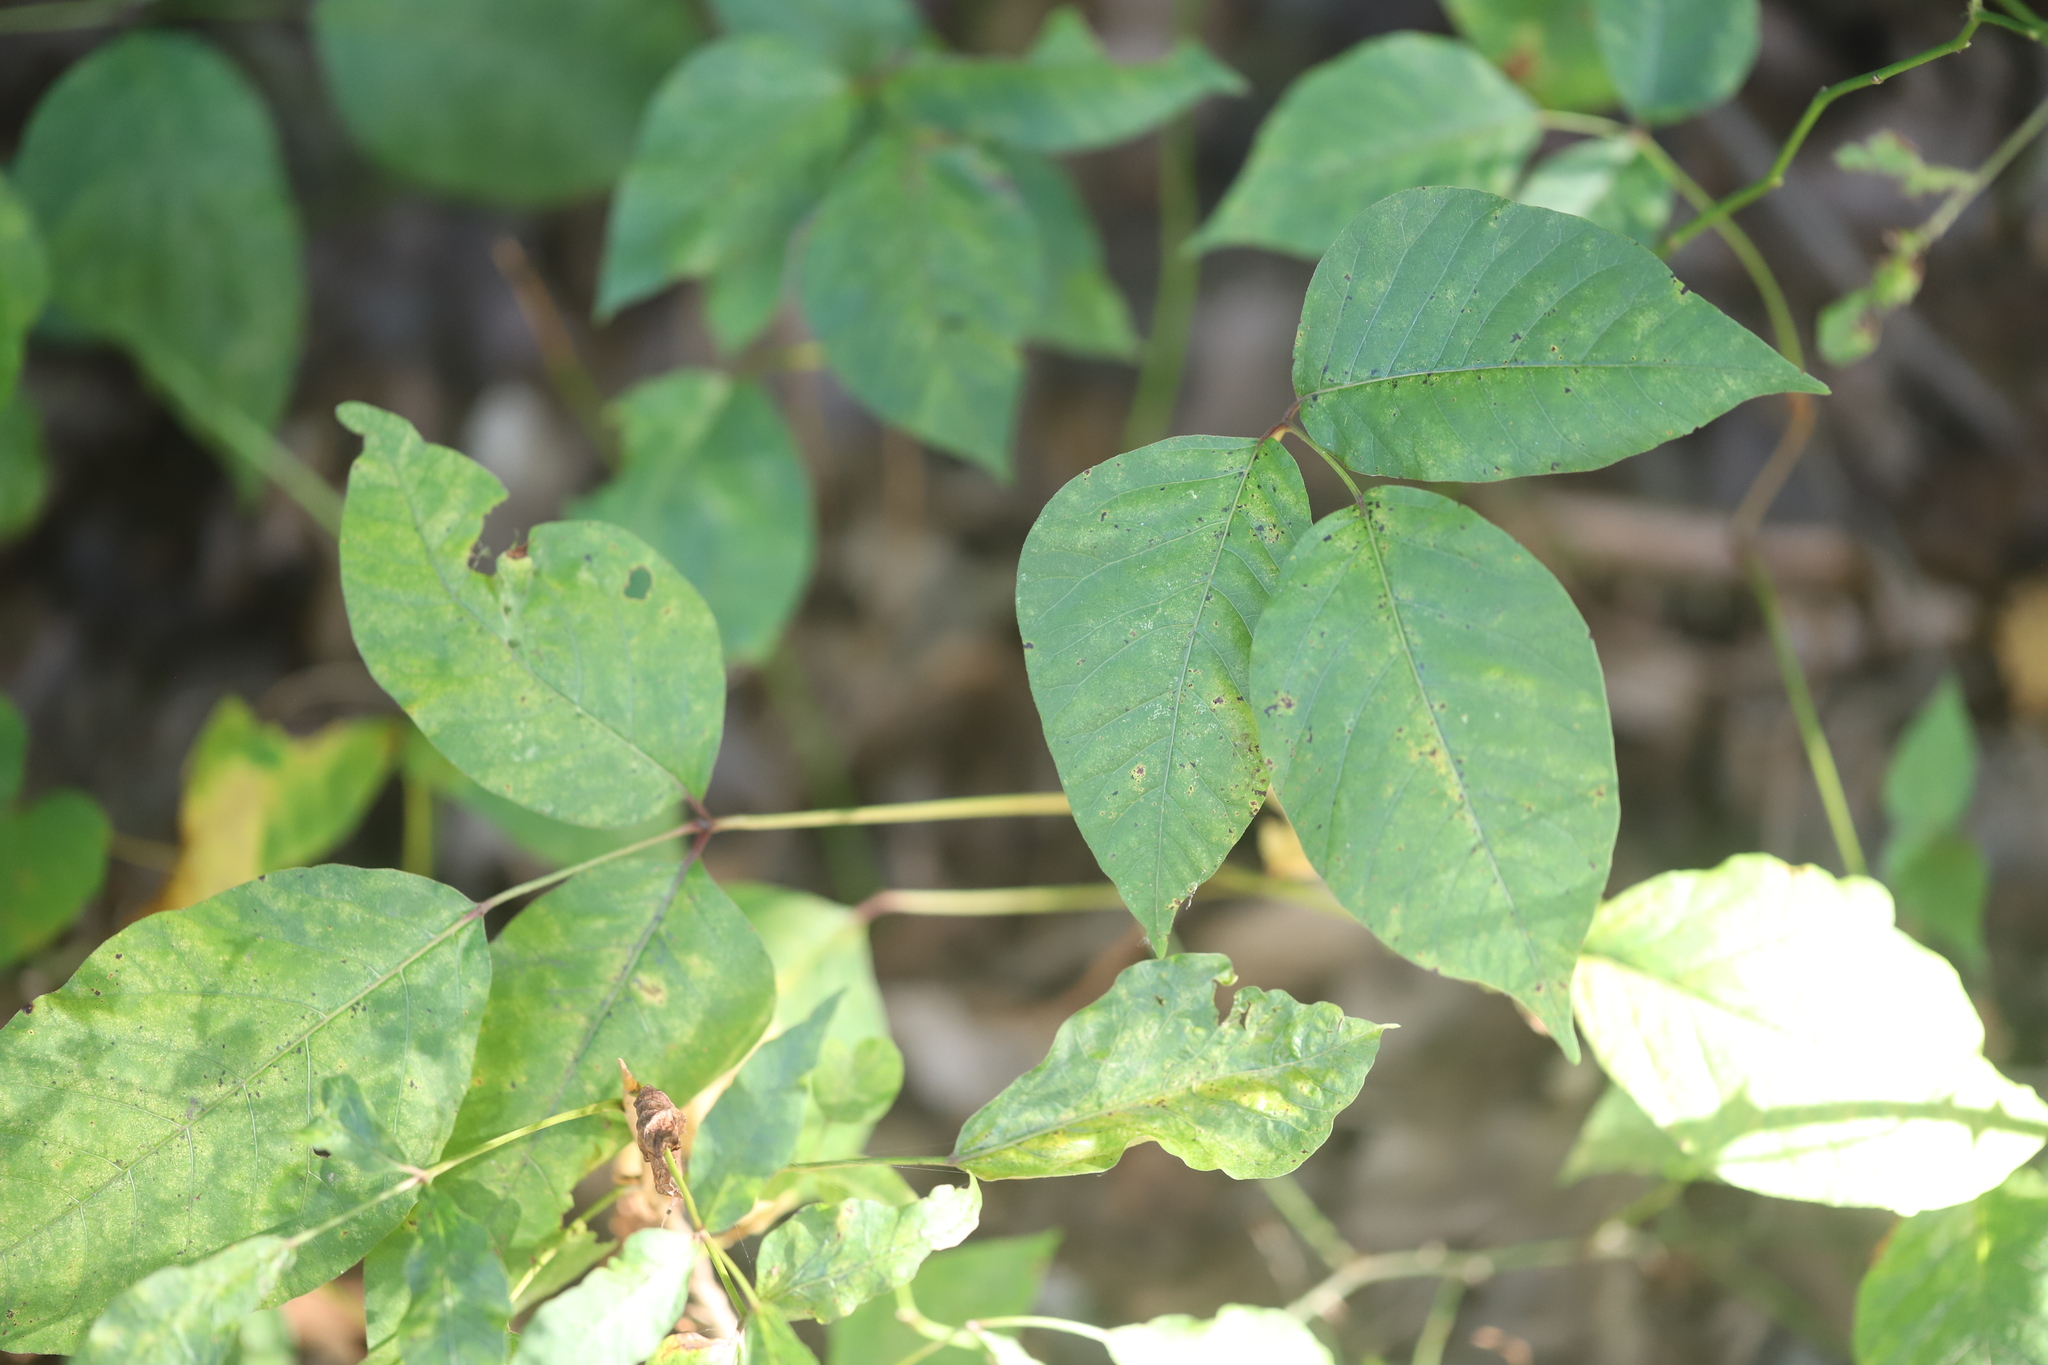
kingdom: Plantae
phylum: Tracheophyta
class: Magnoliopsida
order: Sapindales
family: Anacardiaceae
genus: Toxicodendron
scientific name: Toxicodendron radicans
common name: Poison ivy
